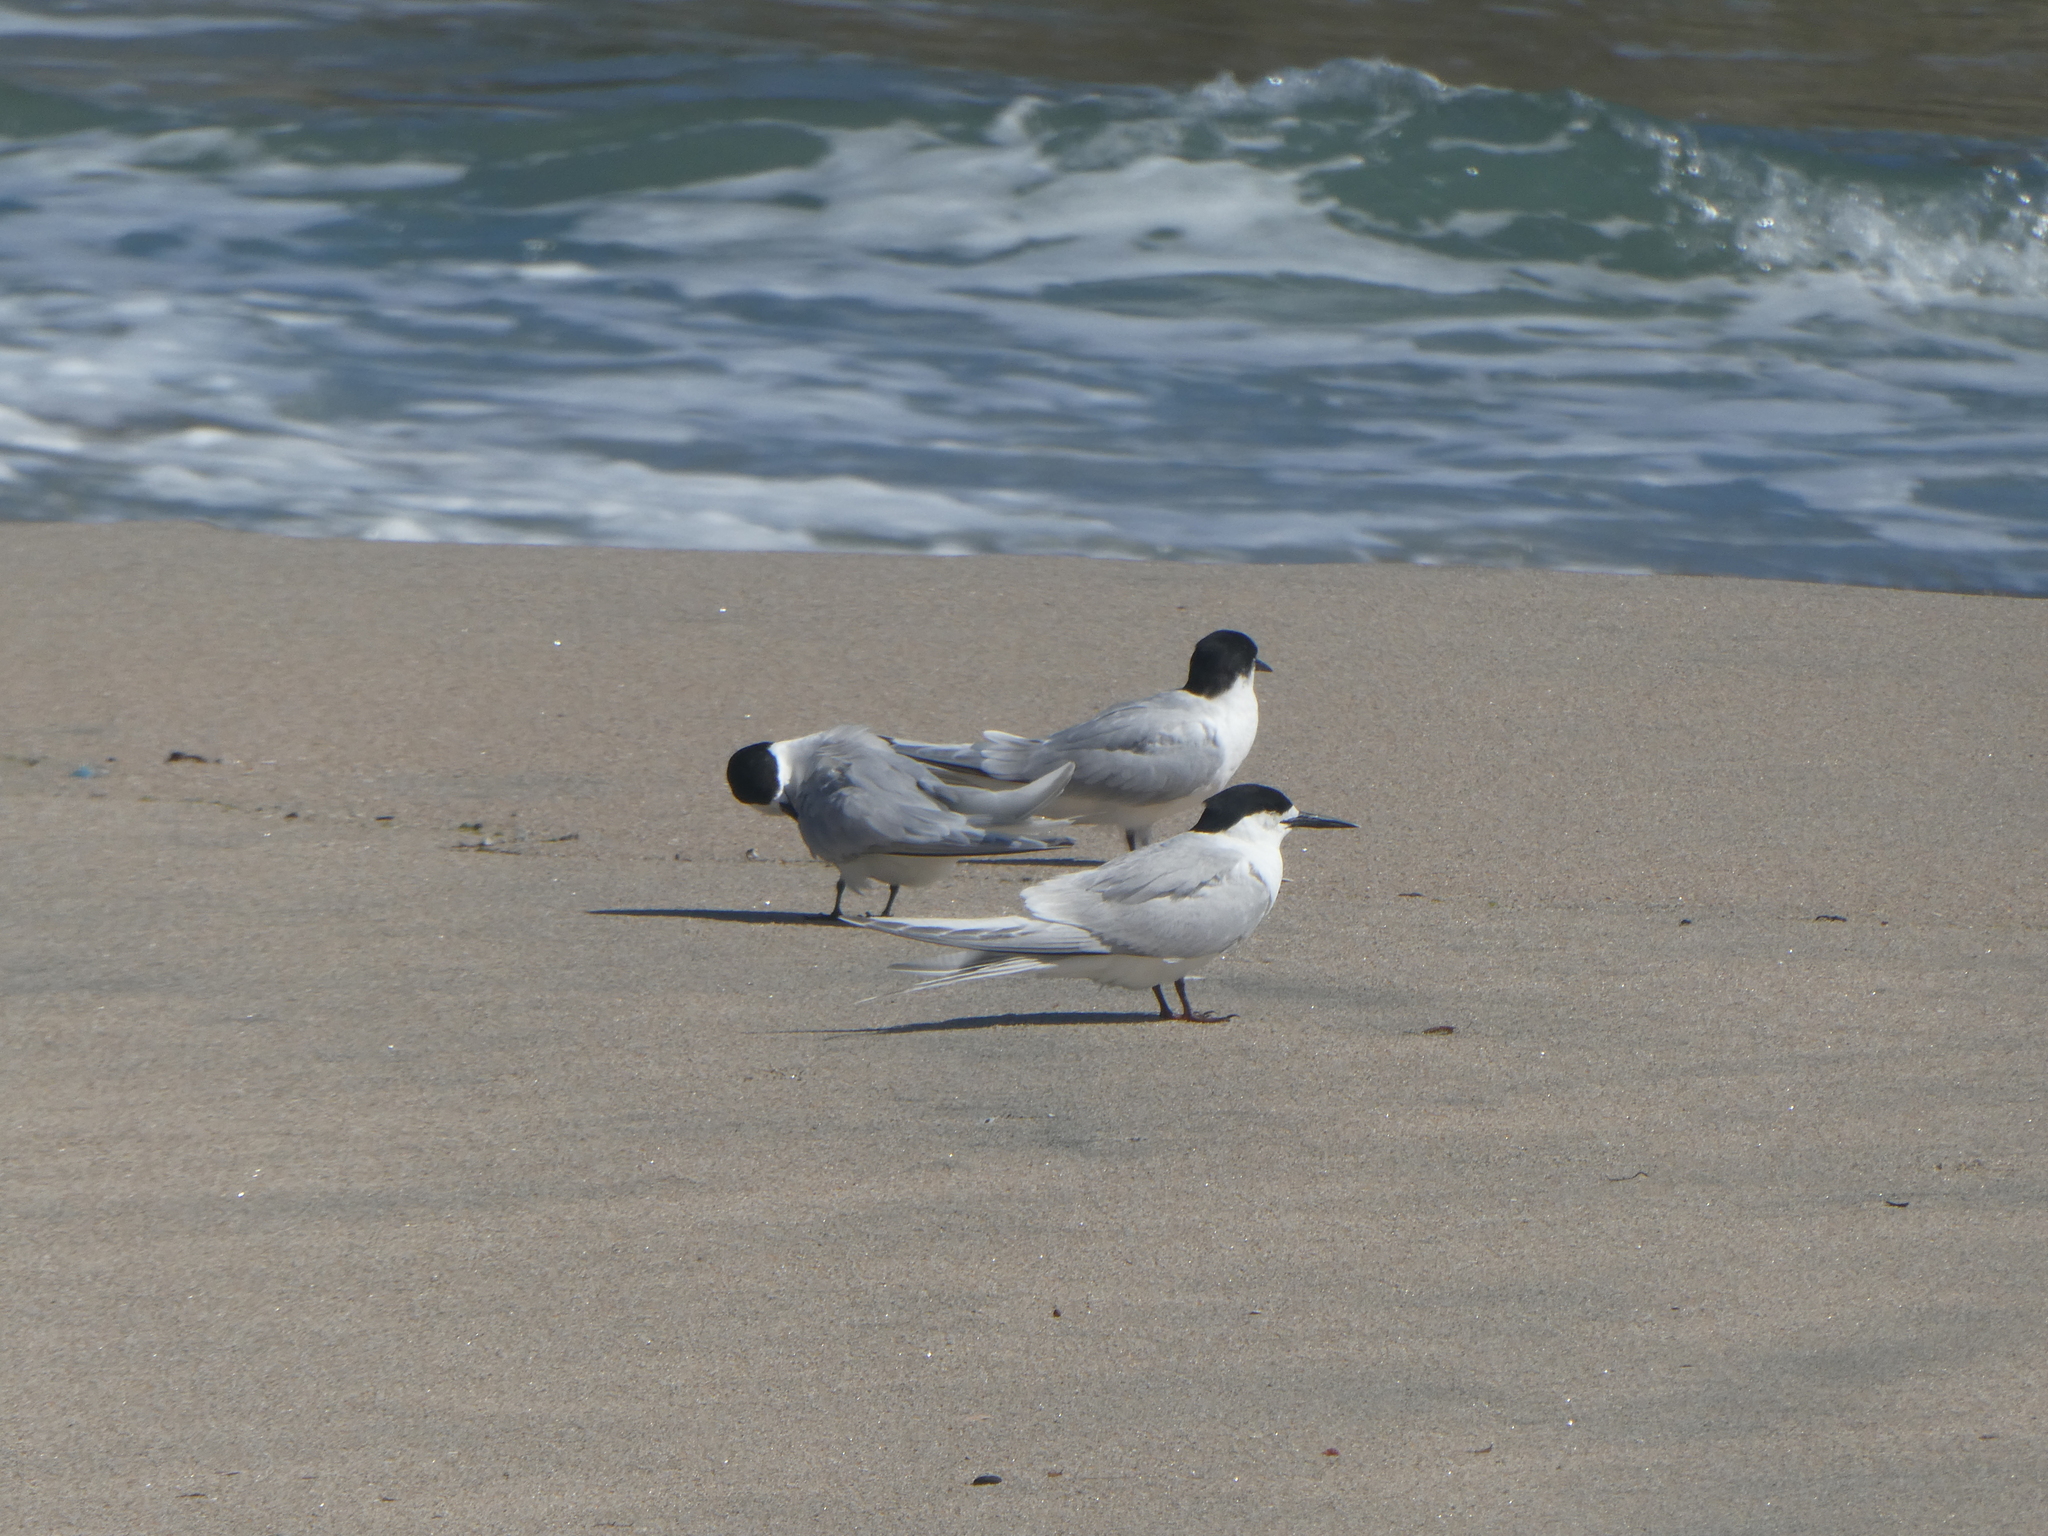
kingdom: Animalia
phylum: Chordata
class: Aves
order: Charadriiformes
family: Laridae
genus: Sterna
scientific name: Sterna striata
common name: White-fronted tern
